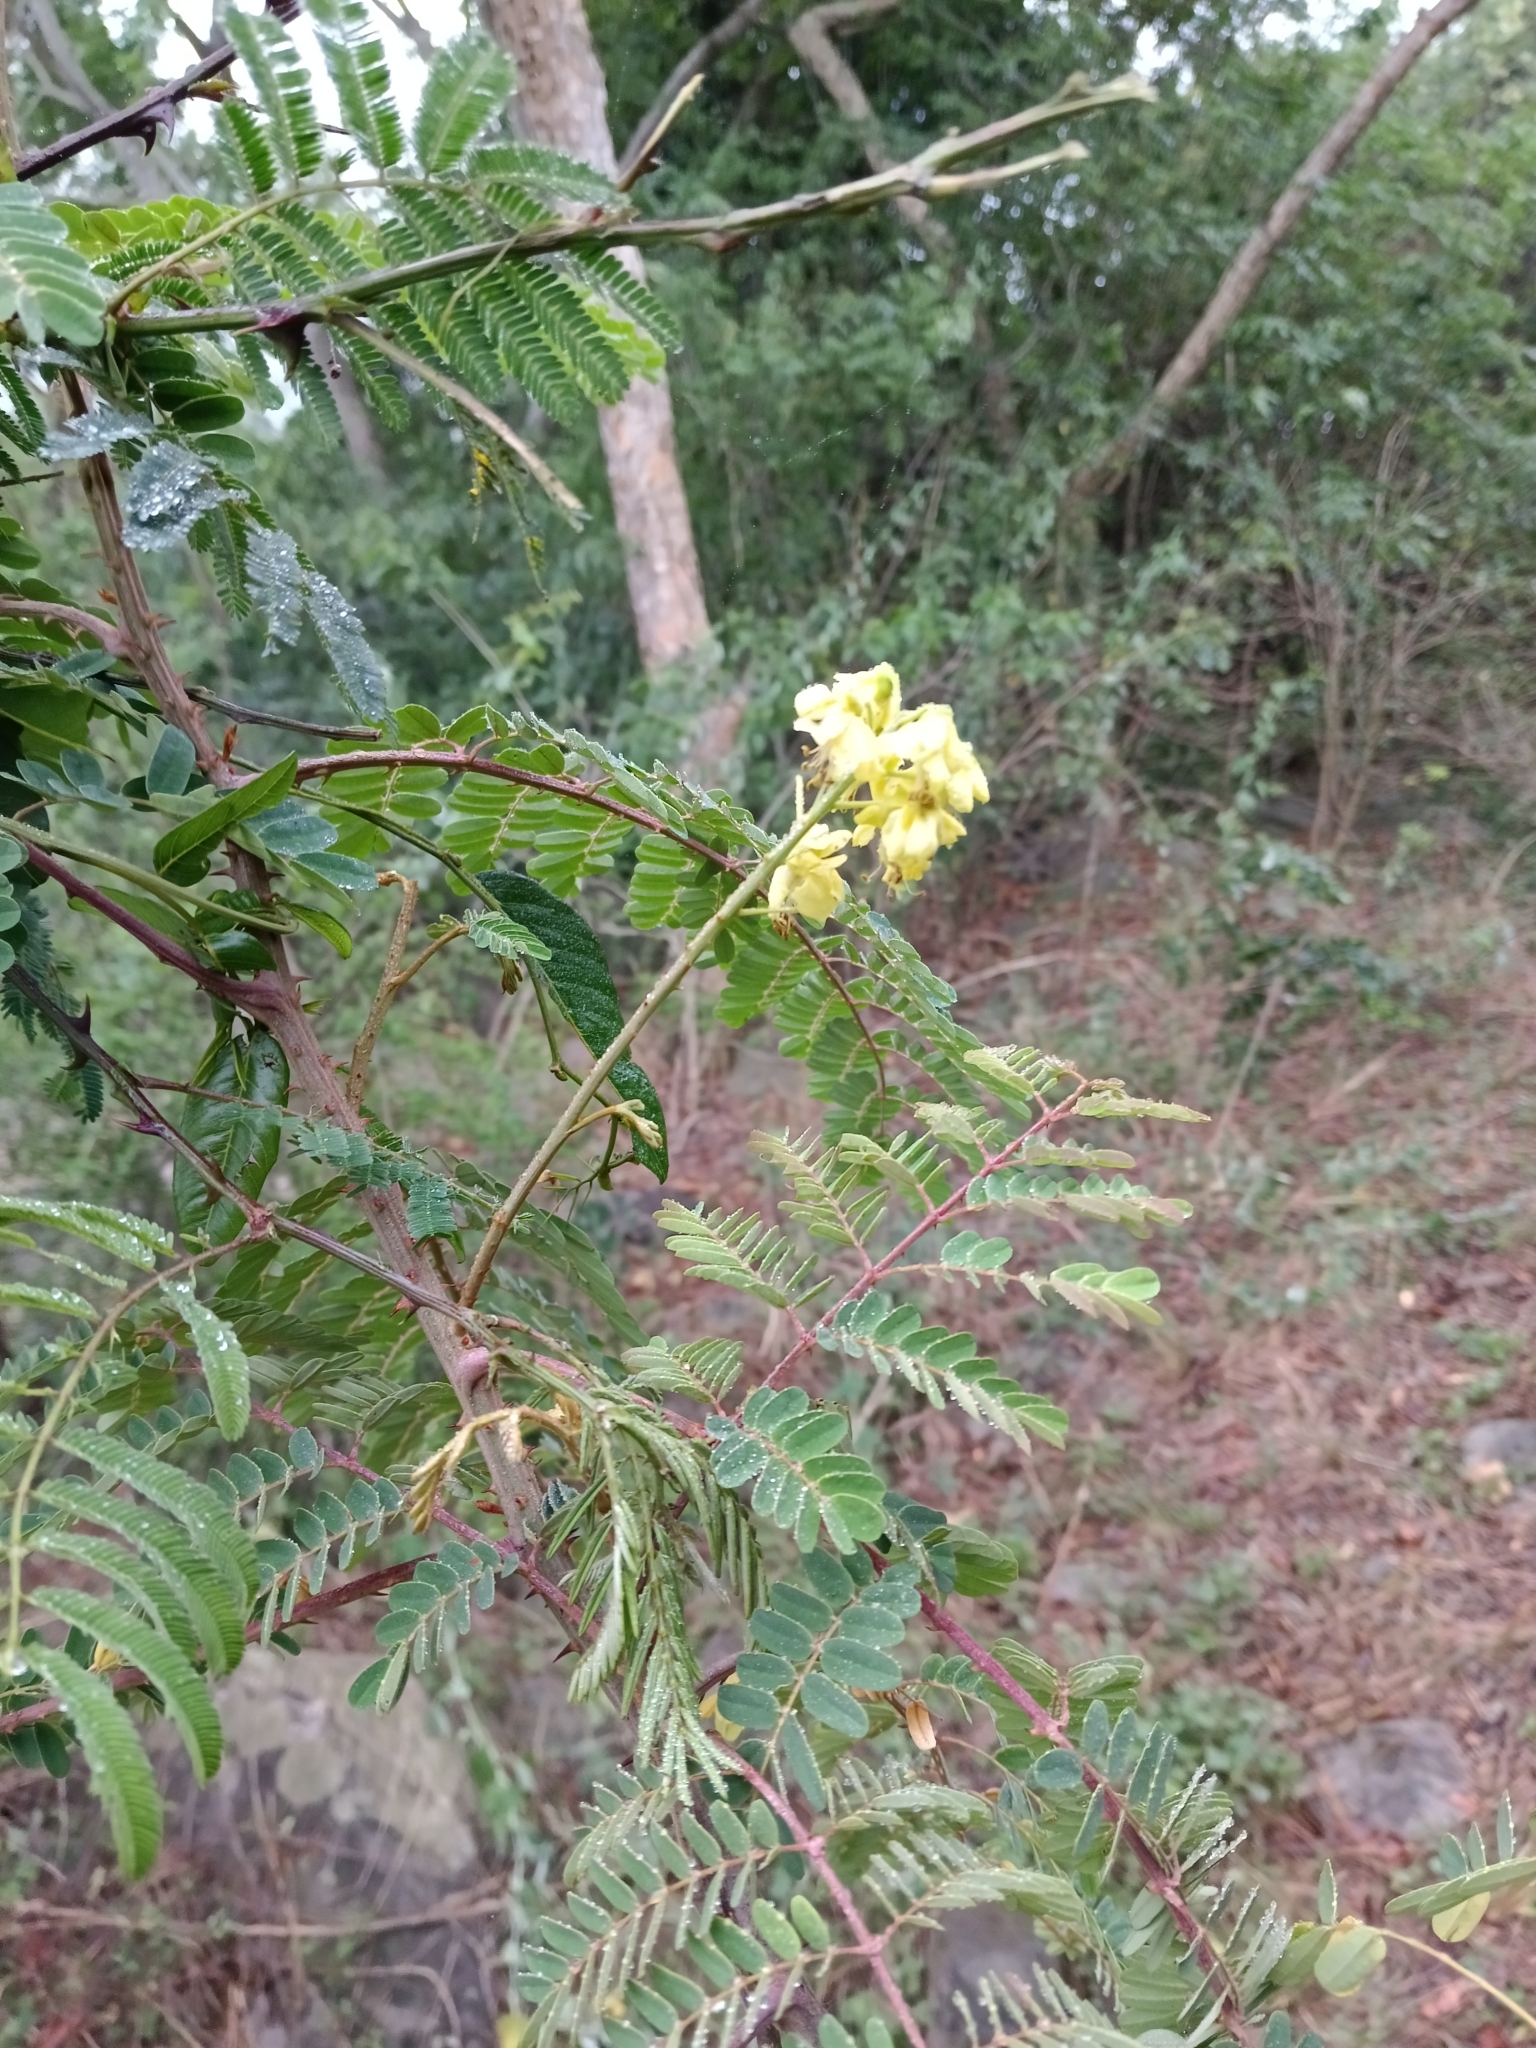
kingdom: Plantae
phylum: Tracheophyta
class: Magnoliopsida
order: Fabales
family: Fabaceae
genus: Biancaea
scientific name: Biancaea decapetala
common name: Cat's claw
